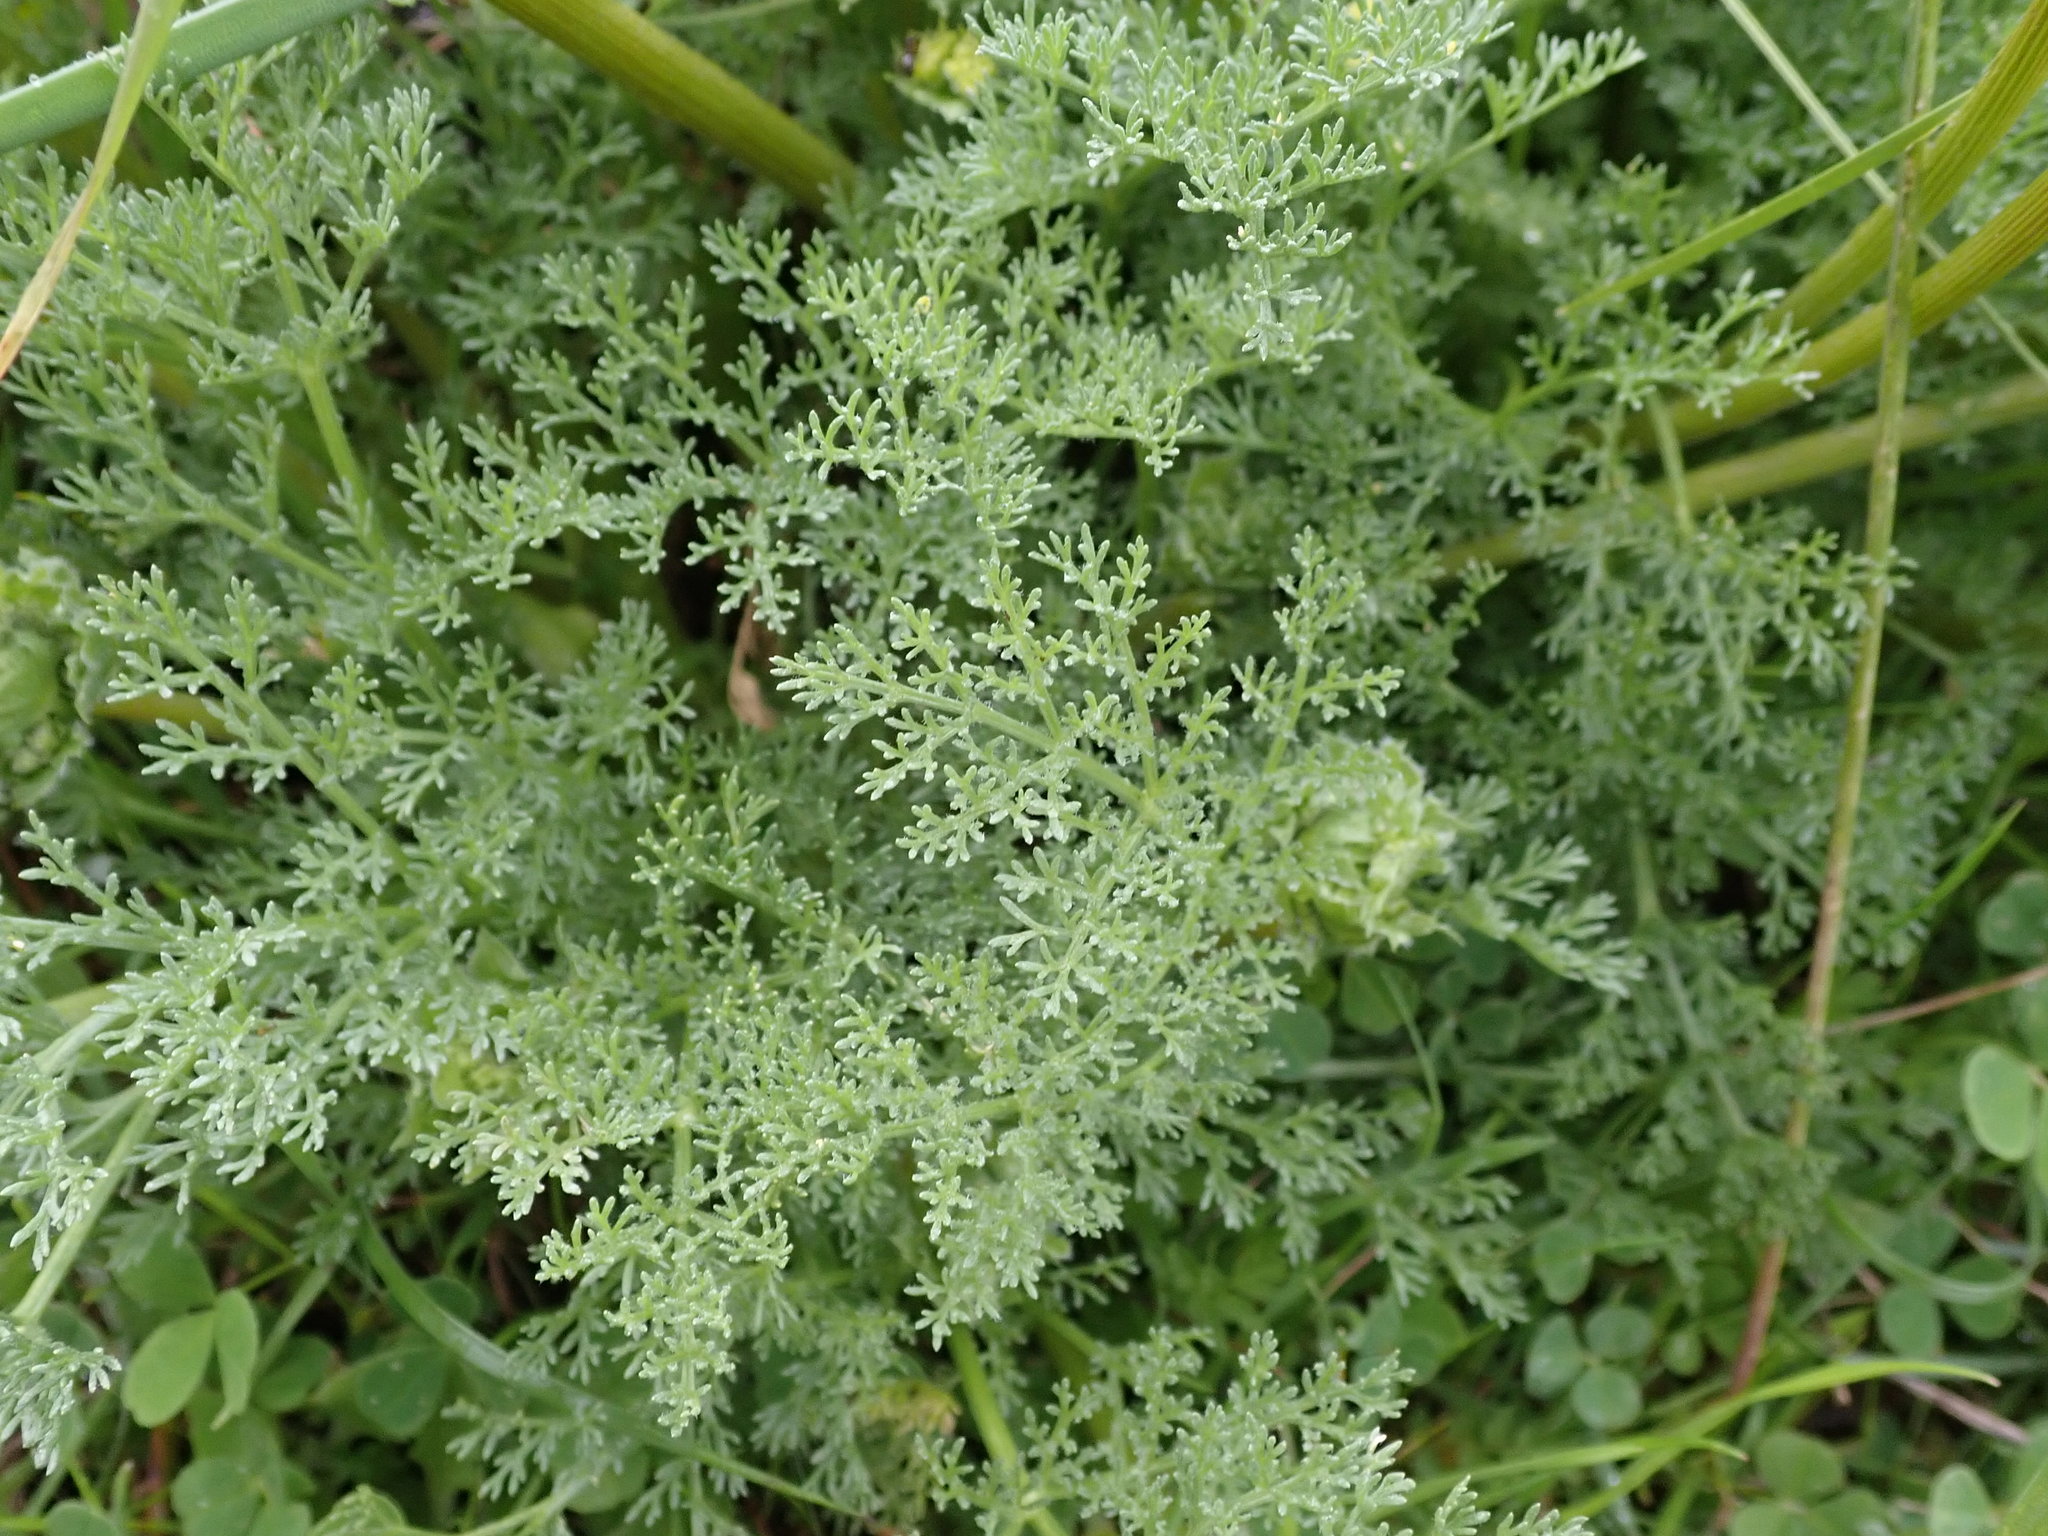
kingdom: Plantae
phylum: Tracheophyta
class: Magnoliopsida
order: Apiales
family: Apiaceae
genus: Lomatium
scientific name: Lomatium dasycarpum
